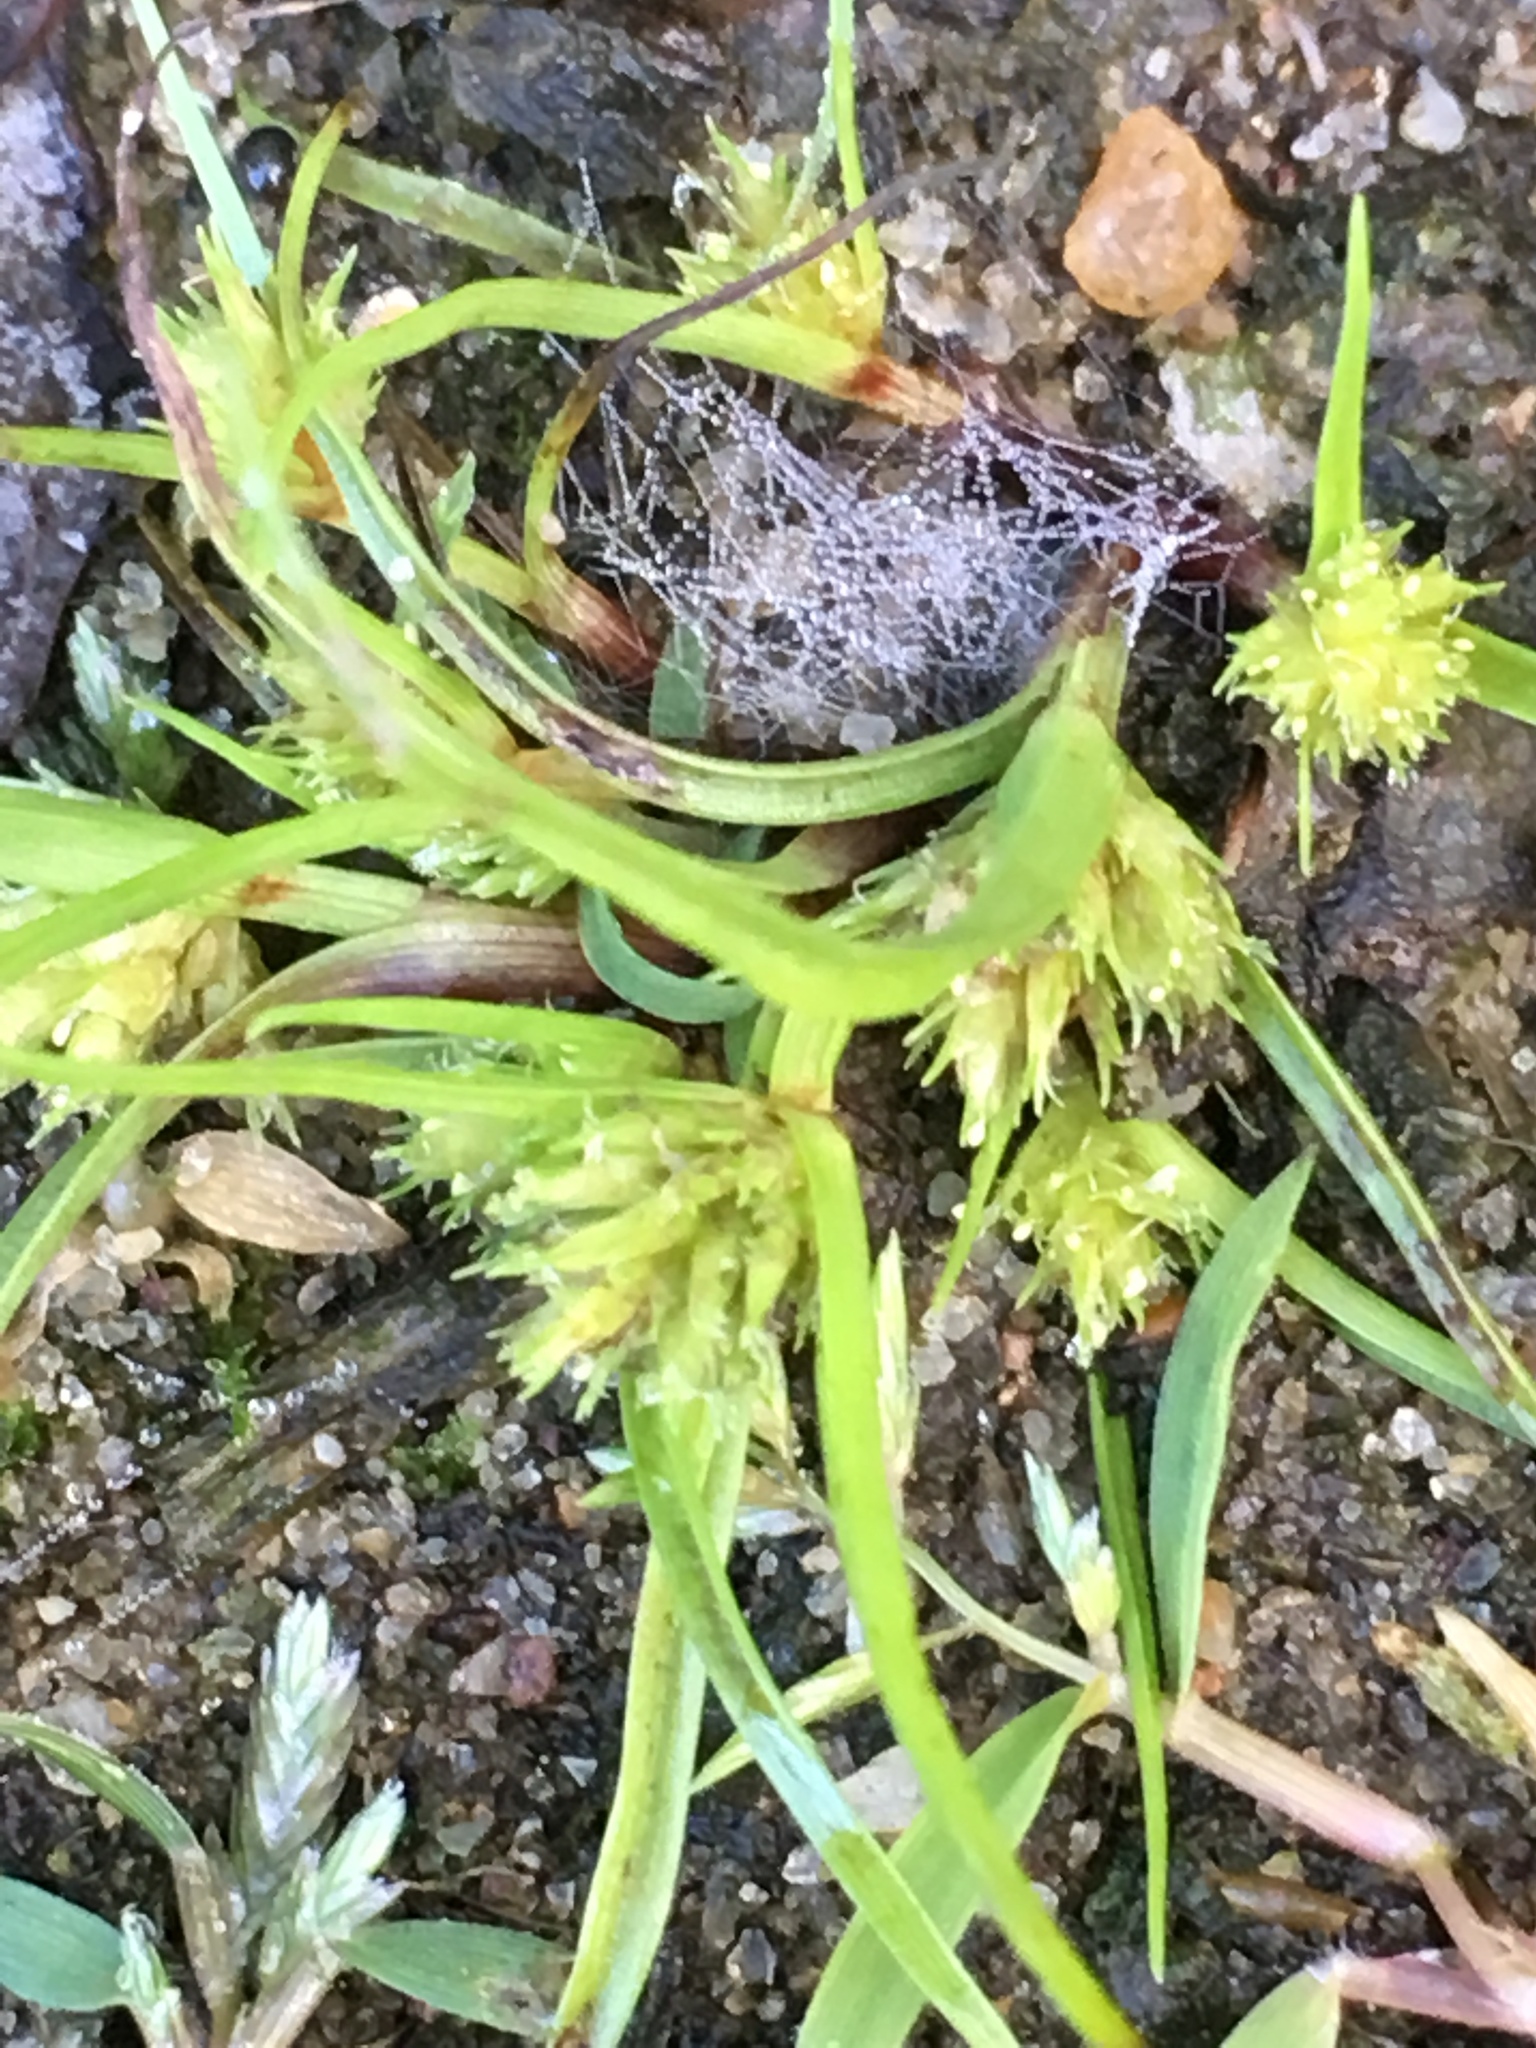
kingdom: Plantae
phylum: Tracheophyta
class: Liliopsida
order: Poales
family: Cyperaceae
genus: Cyperus
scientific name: Cyperus squarrosus
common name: Awned cyperus
